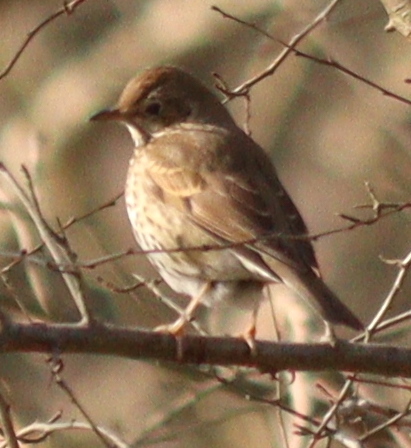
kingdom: Animalia
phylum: Chordata
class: Aves
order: Passeriformes
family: Turdidae
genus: Turdus
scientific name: Turdus philomelos
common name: Song thrush
